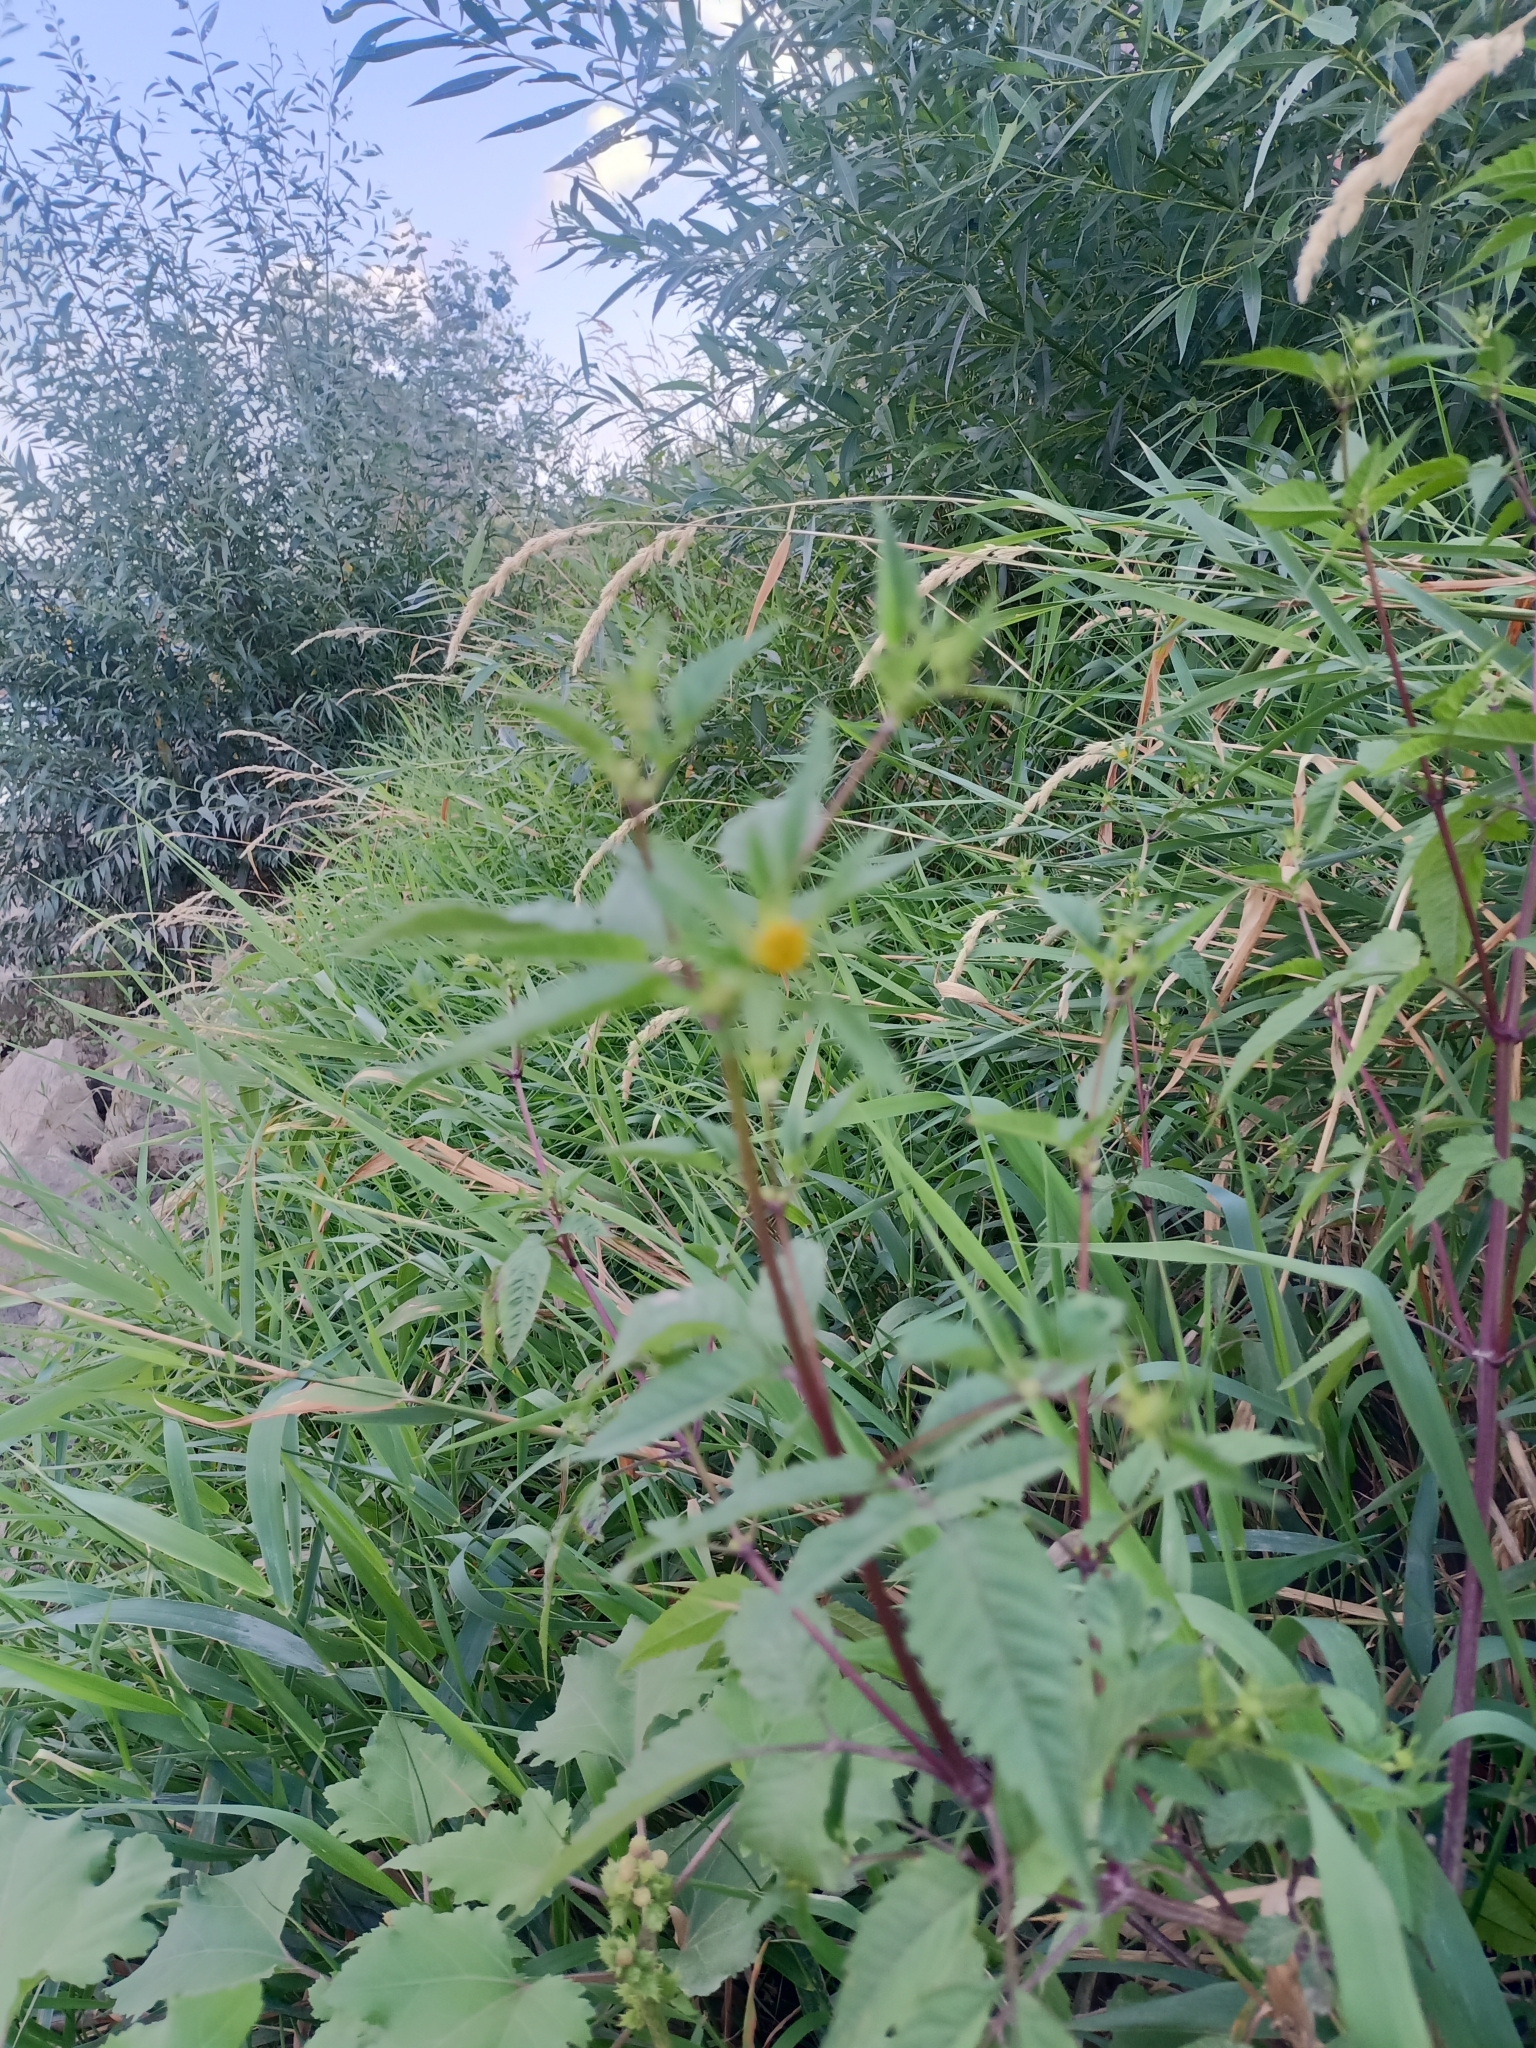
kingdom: Plantae
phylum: Tracheophyta
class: Magnoliopsida
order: Asterales
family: Asteraceae
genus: Bidens
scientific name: Bidens frondosa
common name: Beggarticks
